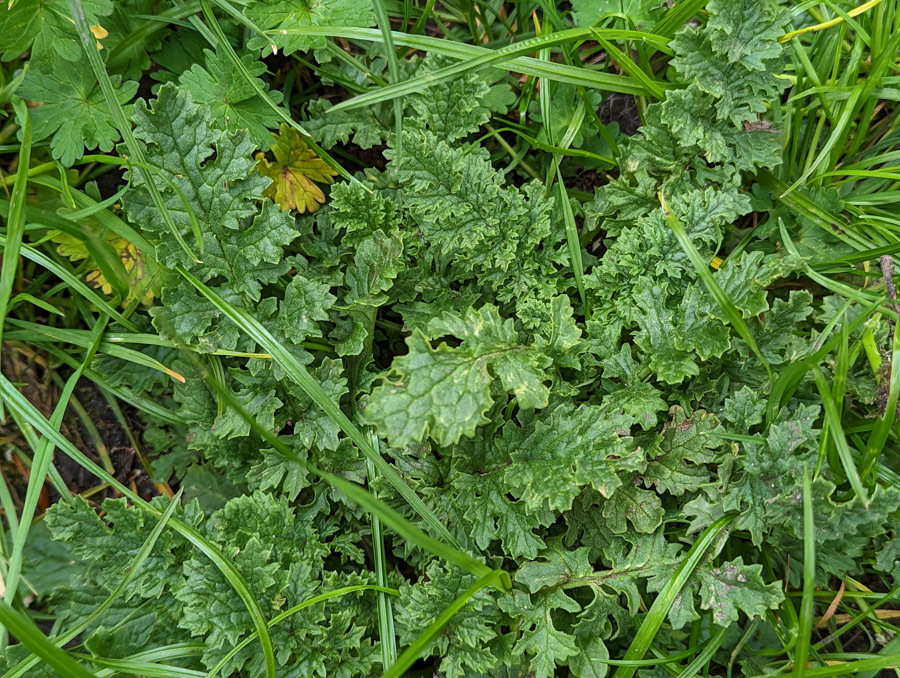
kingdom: Plantae
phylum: Tracheophyta
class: Magnoliopsida
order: Asterales
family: Asteraceae
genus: Jacobaea
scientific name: Jacobaea vulgaris
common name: Stinking willie
